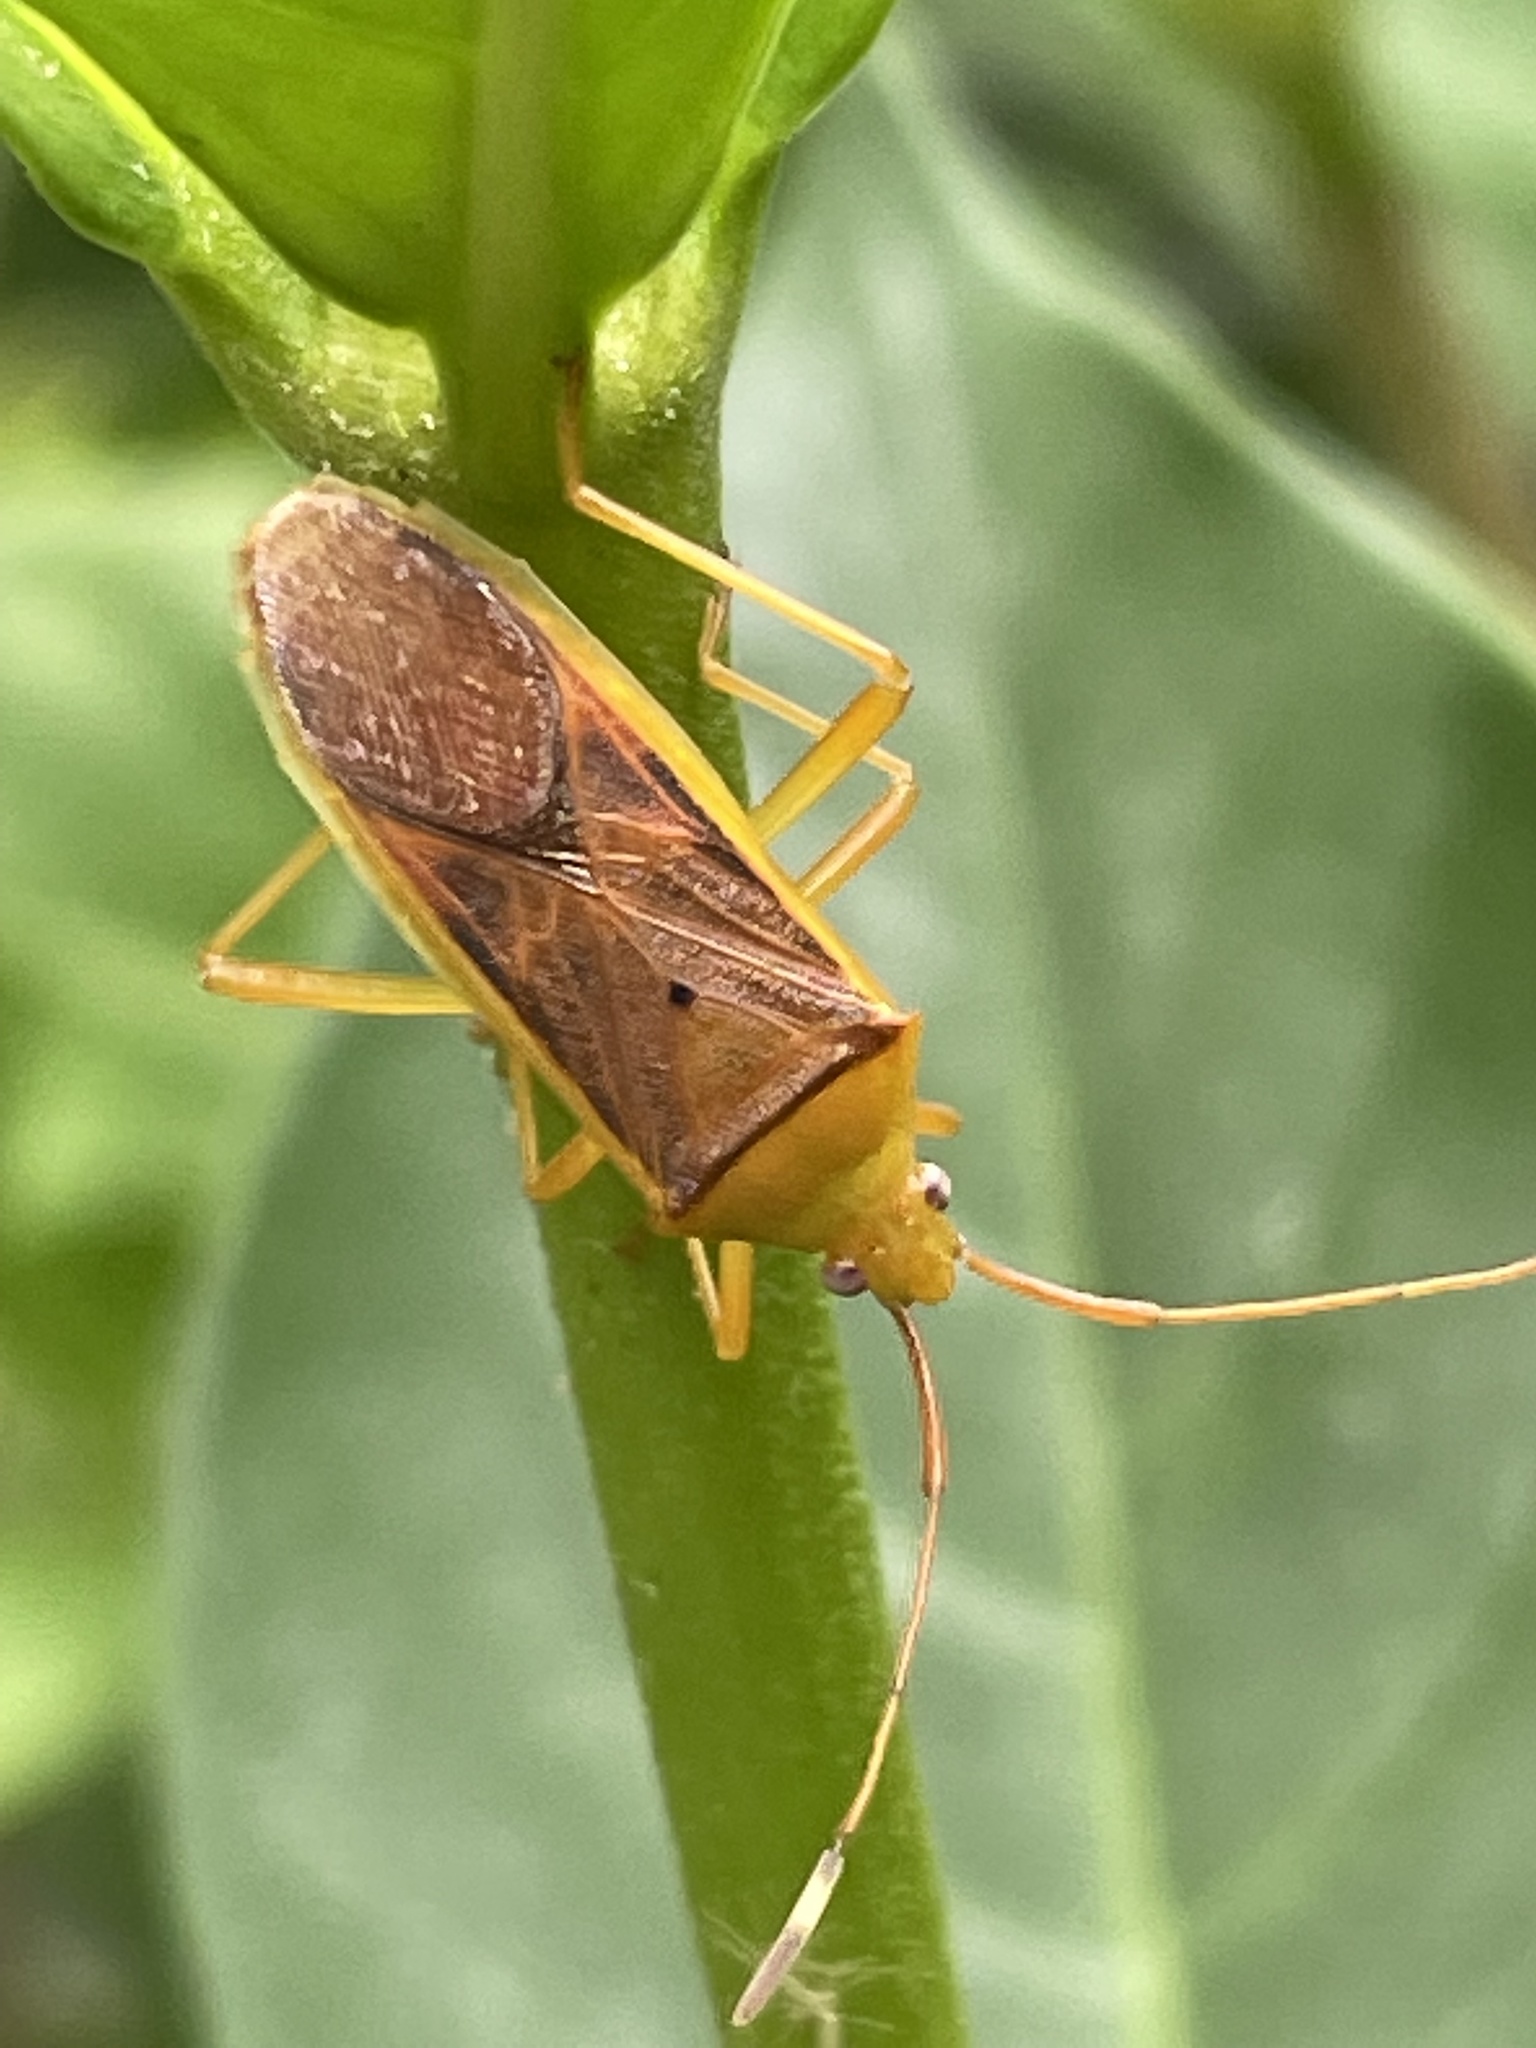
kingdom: Animalia
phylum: Arthropoda
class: Insecta
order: Hemiptera
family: Coreidae
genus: Amblypelta
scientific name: Amblypelta lutescens
